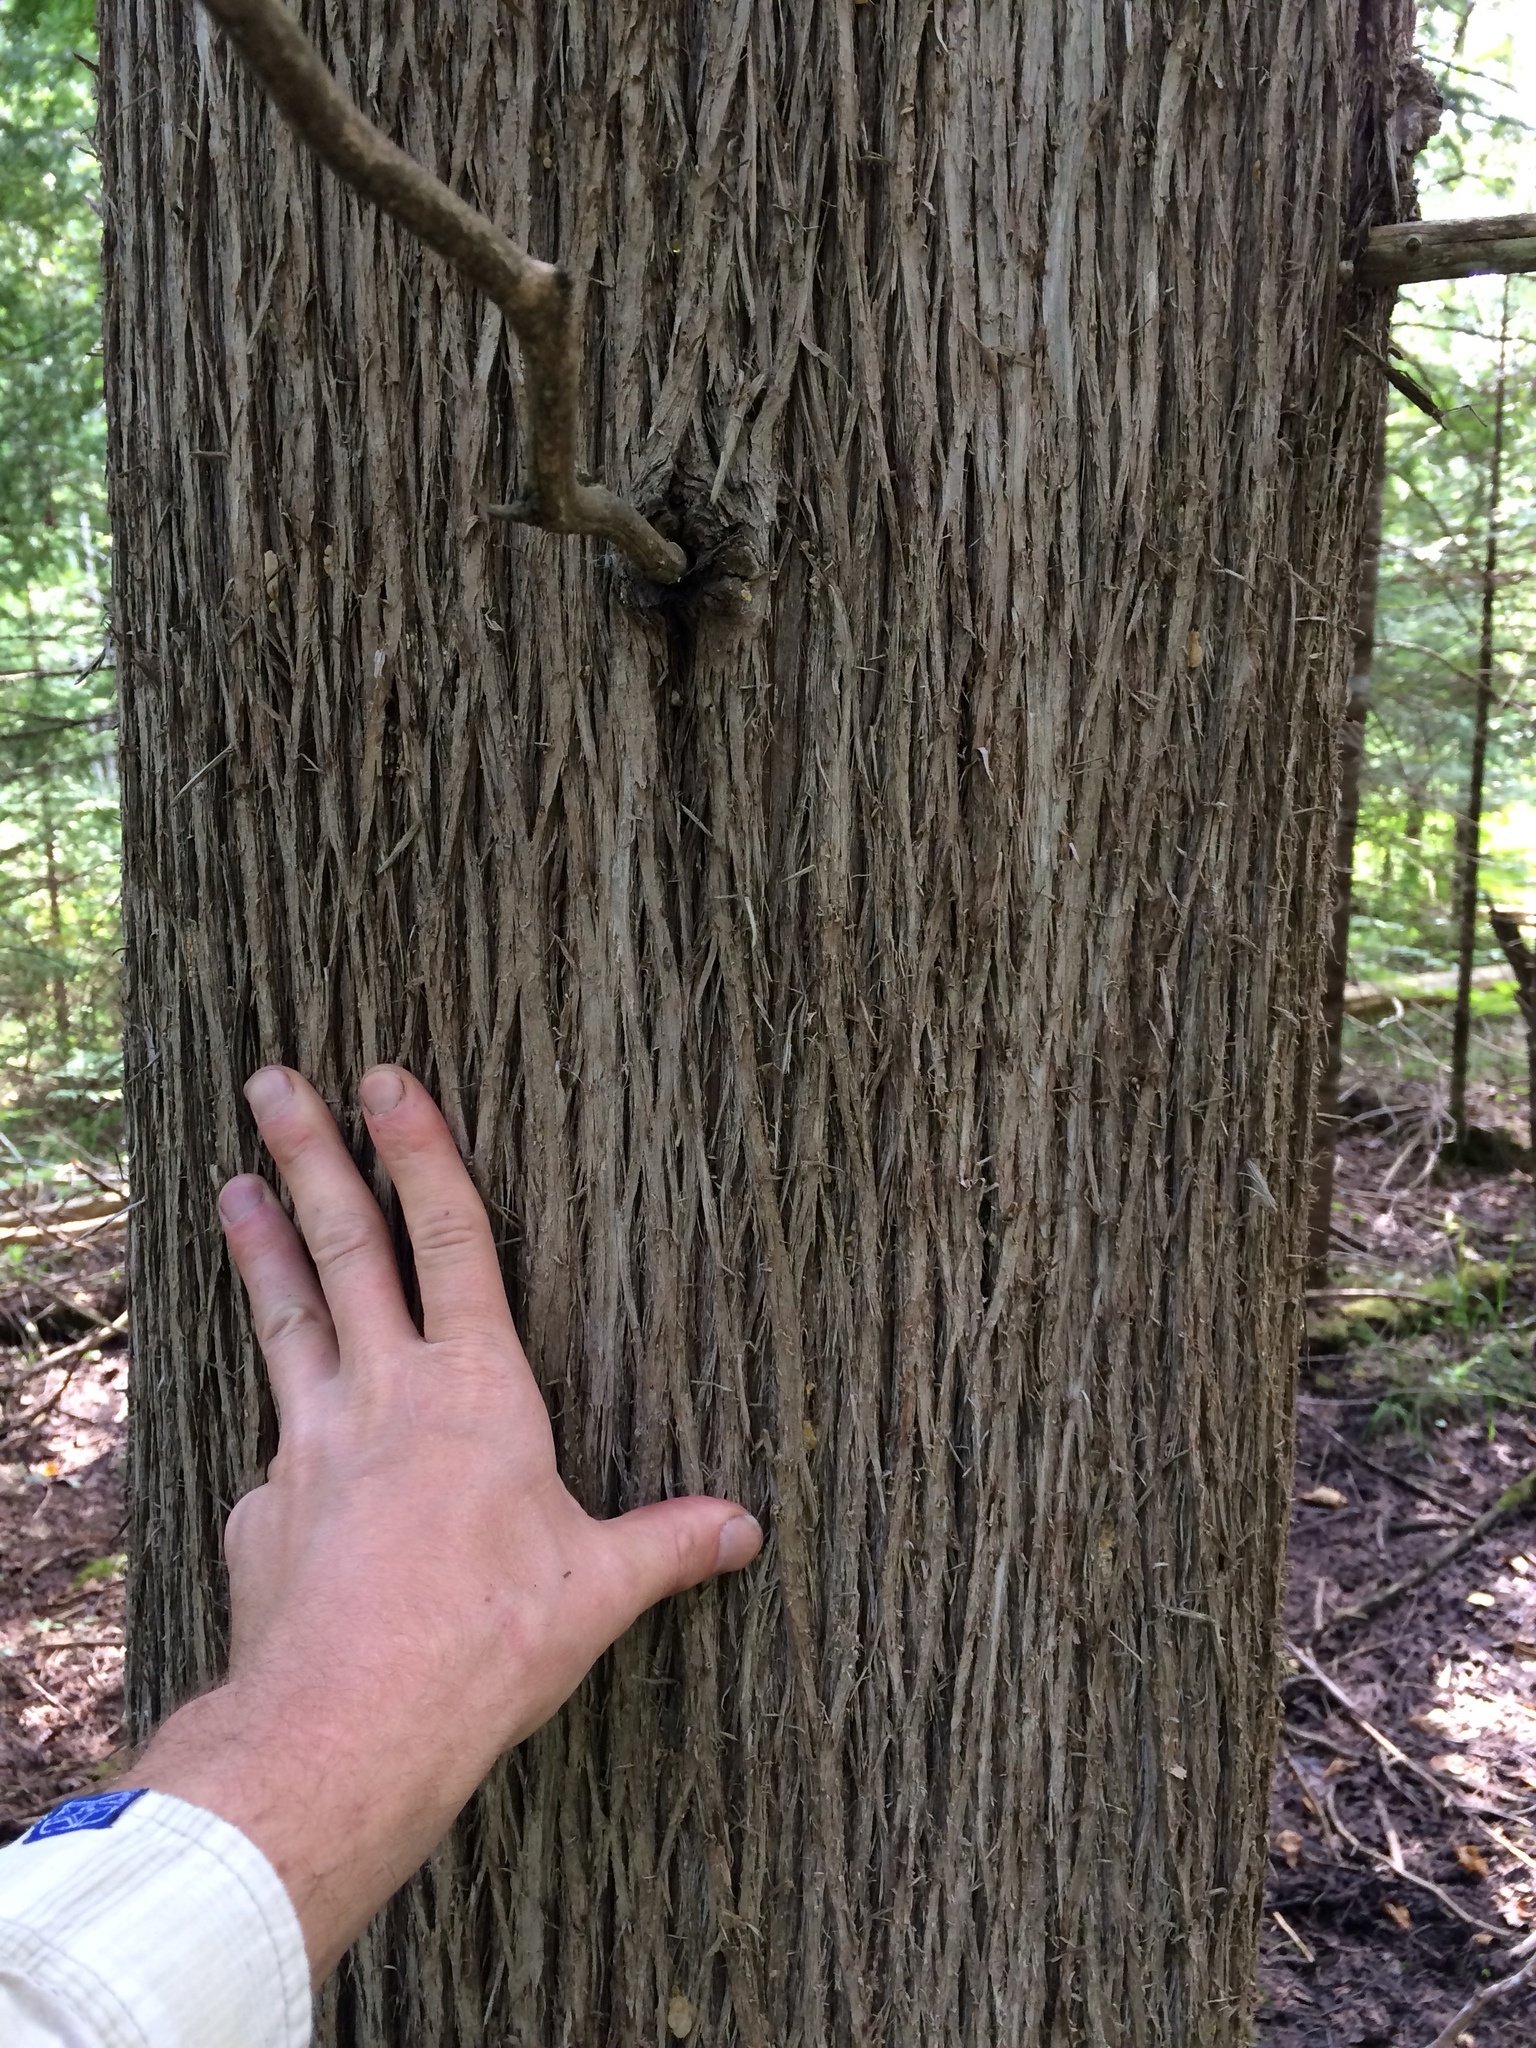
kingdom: Plantae
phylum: Tracheophyta
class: Pinopsida
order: Pinales
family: Cupressaceae
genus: Thuja
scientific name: Thuja occidentalis
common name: Northern white-cedar
